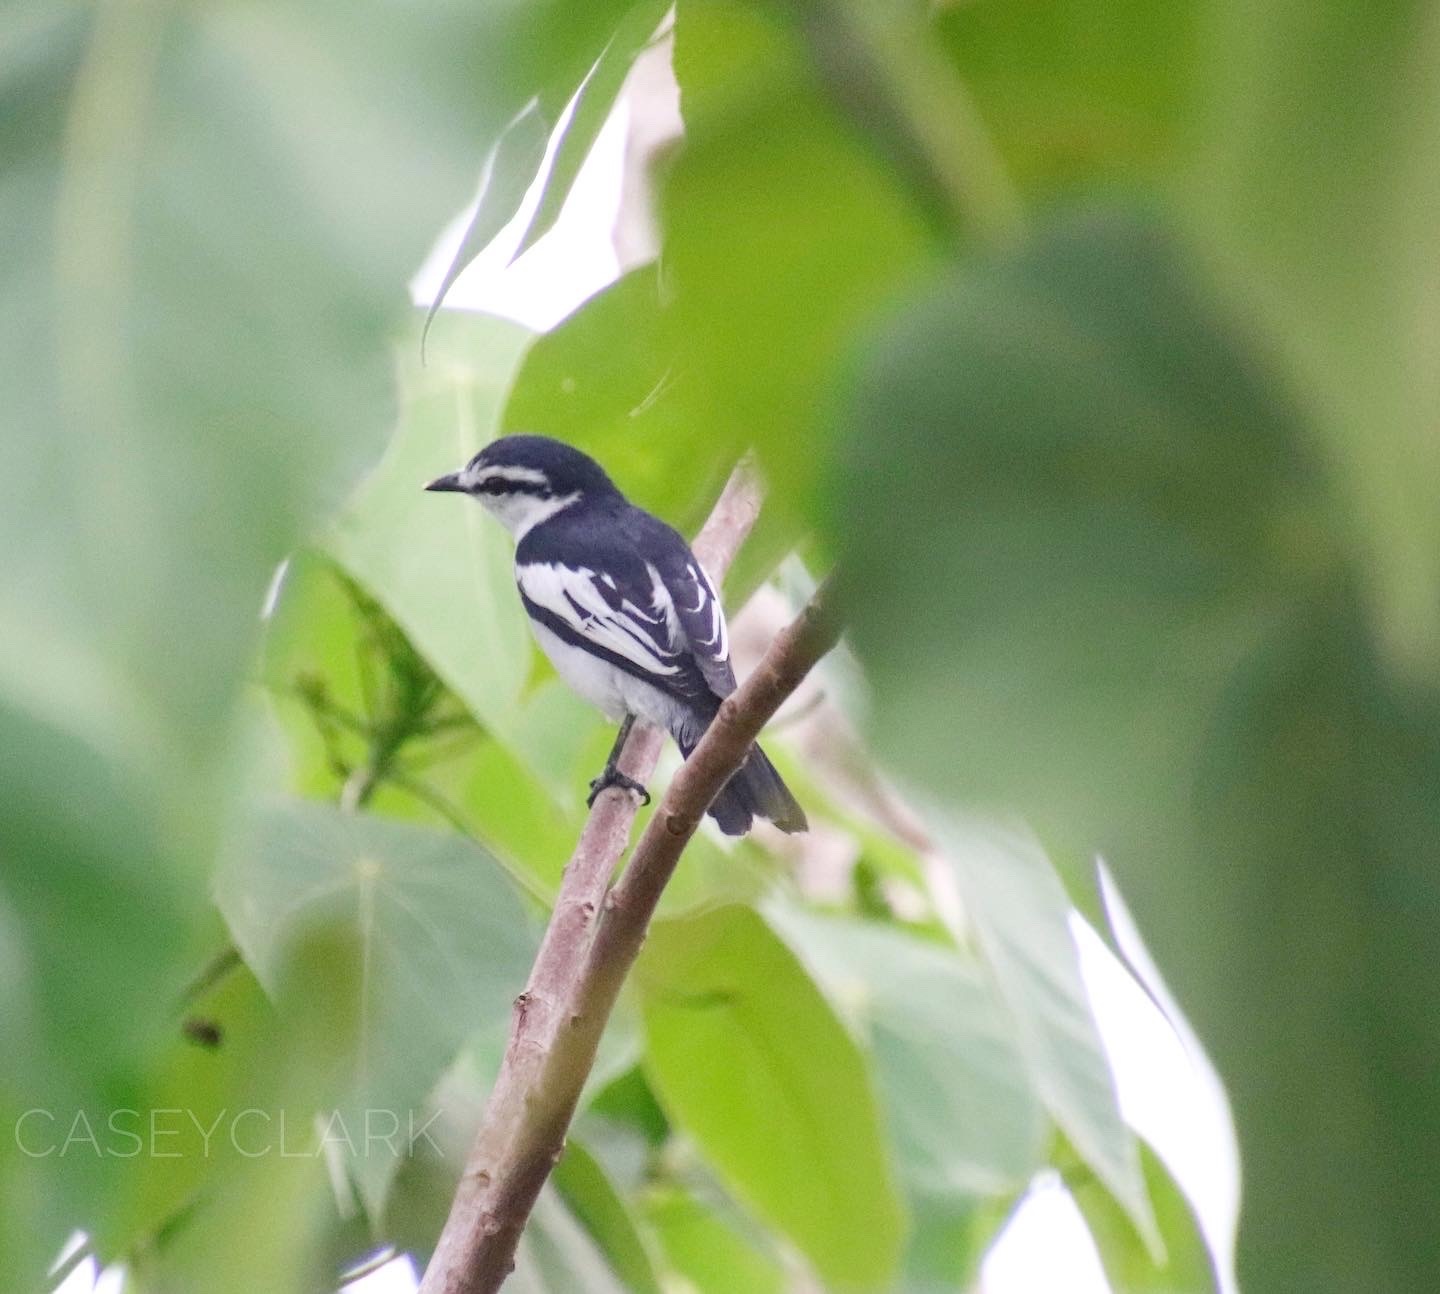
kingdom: Animalia
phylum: Chordata
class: Aves
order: Passeriformes
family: Campephagidae
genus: Lalage
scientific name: Lalage nigra
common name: Pied triller
